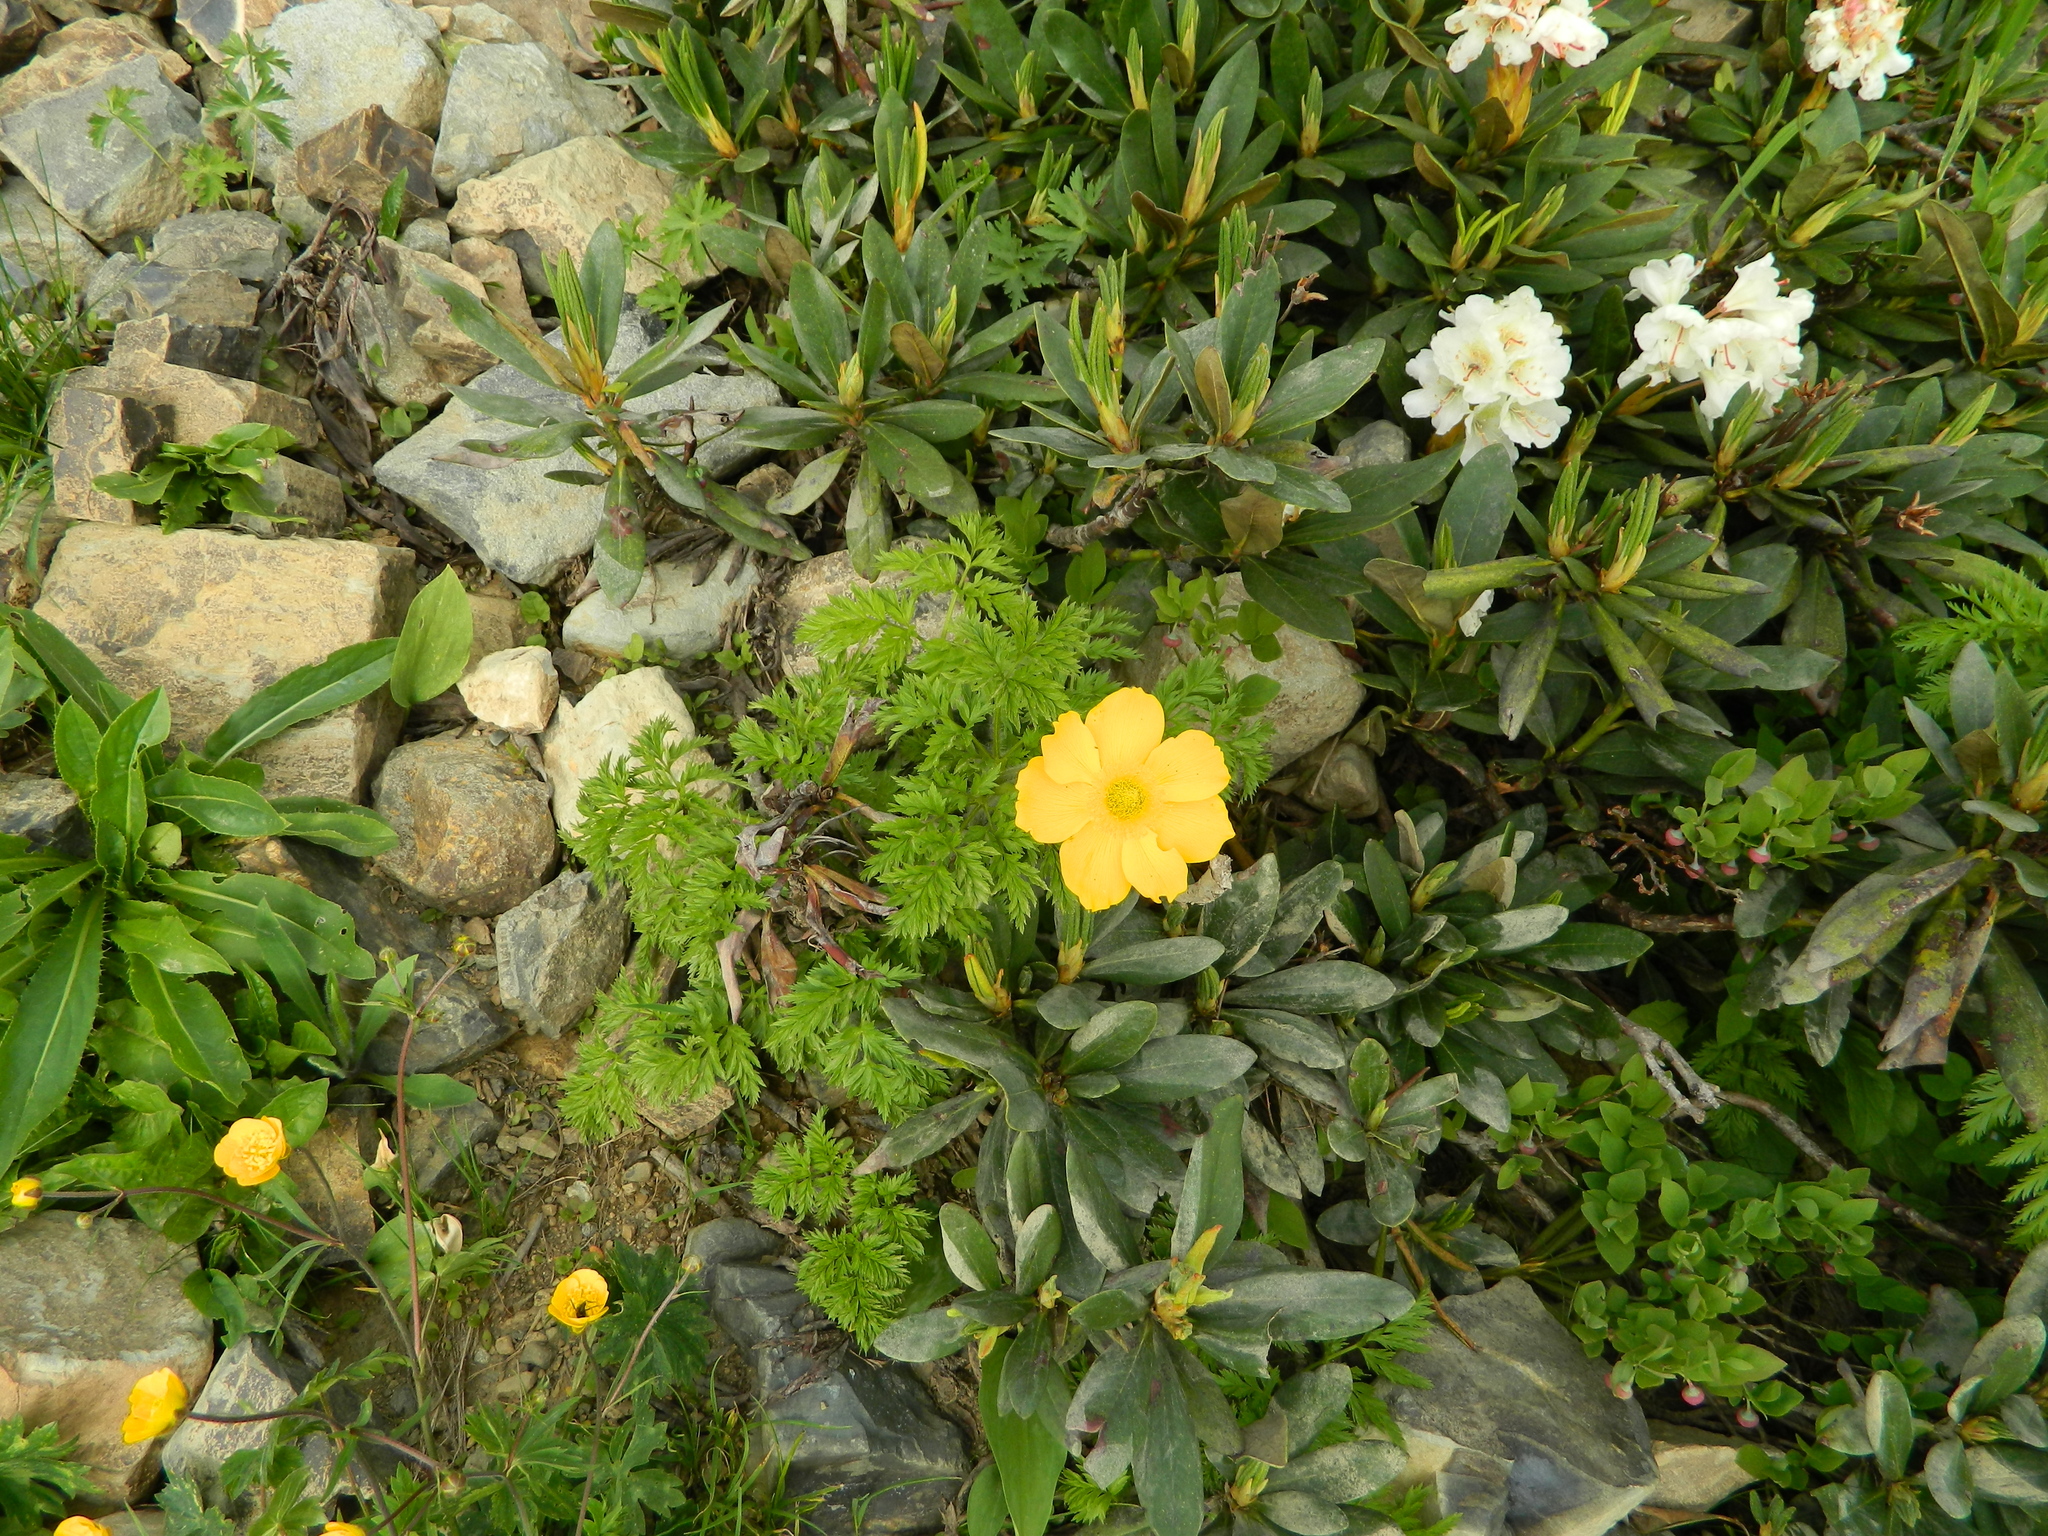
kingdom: Plantae
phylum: Tracheophyta
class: Magnoliopsida
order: Ranunculales
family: Ranunculaceae
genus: Pulsatilla
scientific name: Pulsatilla aurea
